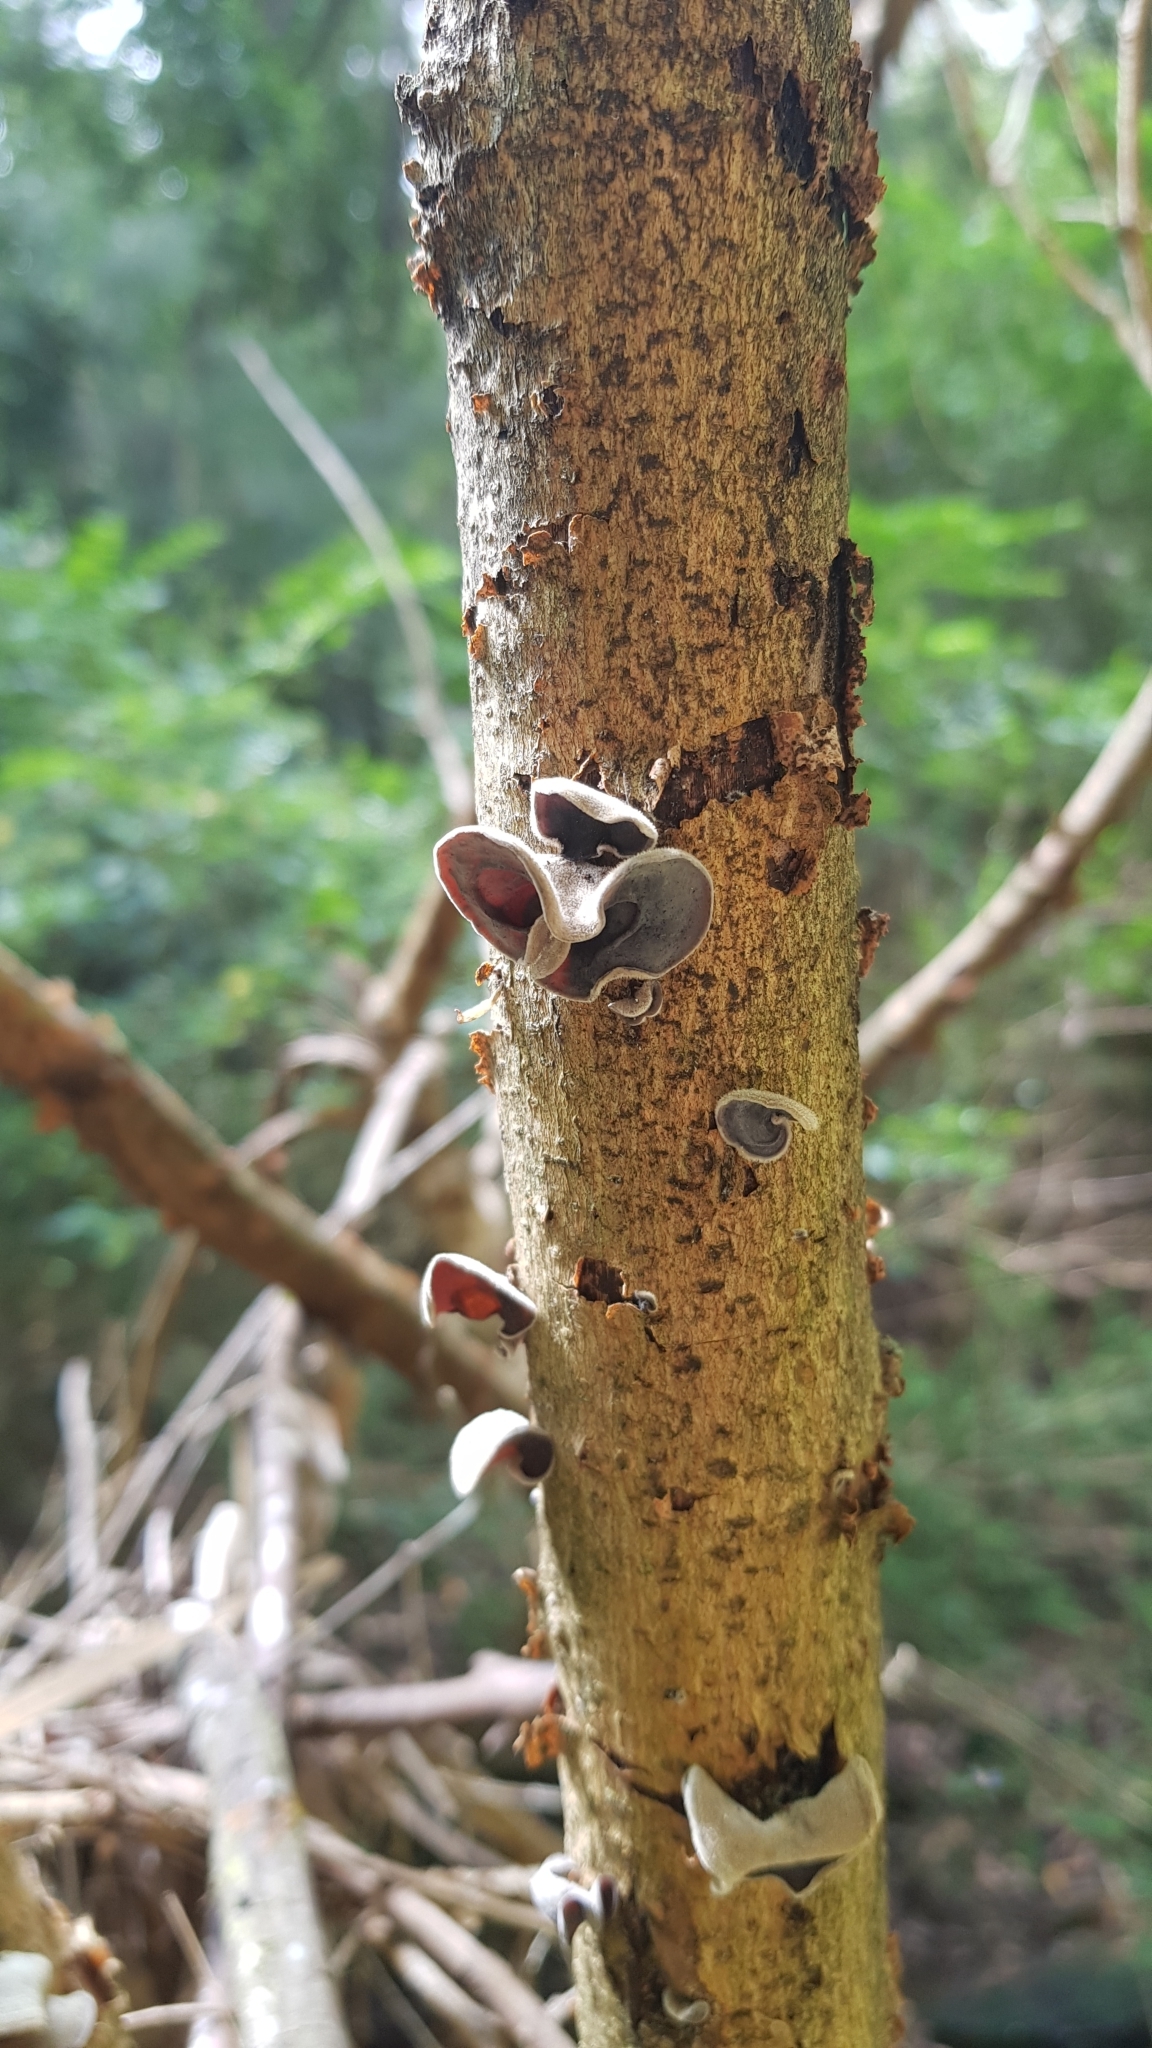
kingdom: Fungi
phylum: Basidiomycota
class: Agaricomycetes
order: Auriculariales
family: Auriculariaceae
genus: Auricularia
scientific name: Auricularia cornea
